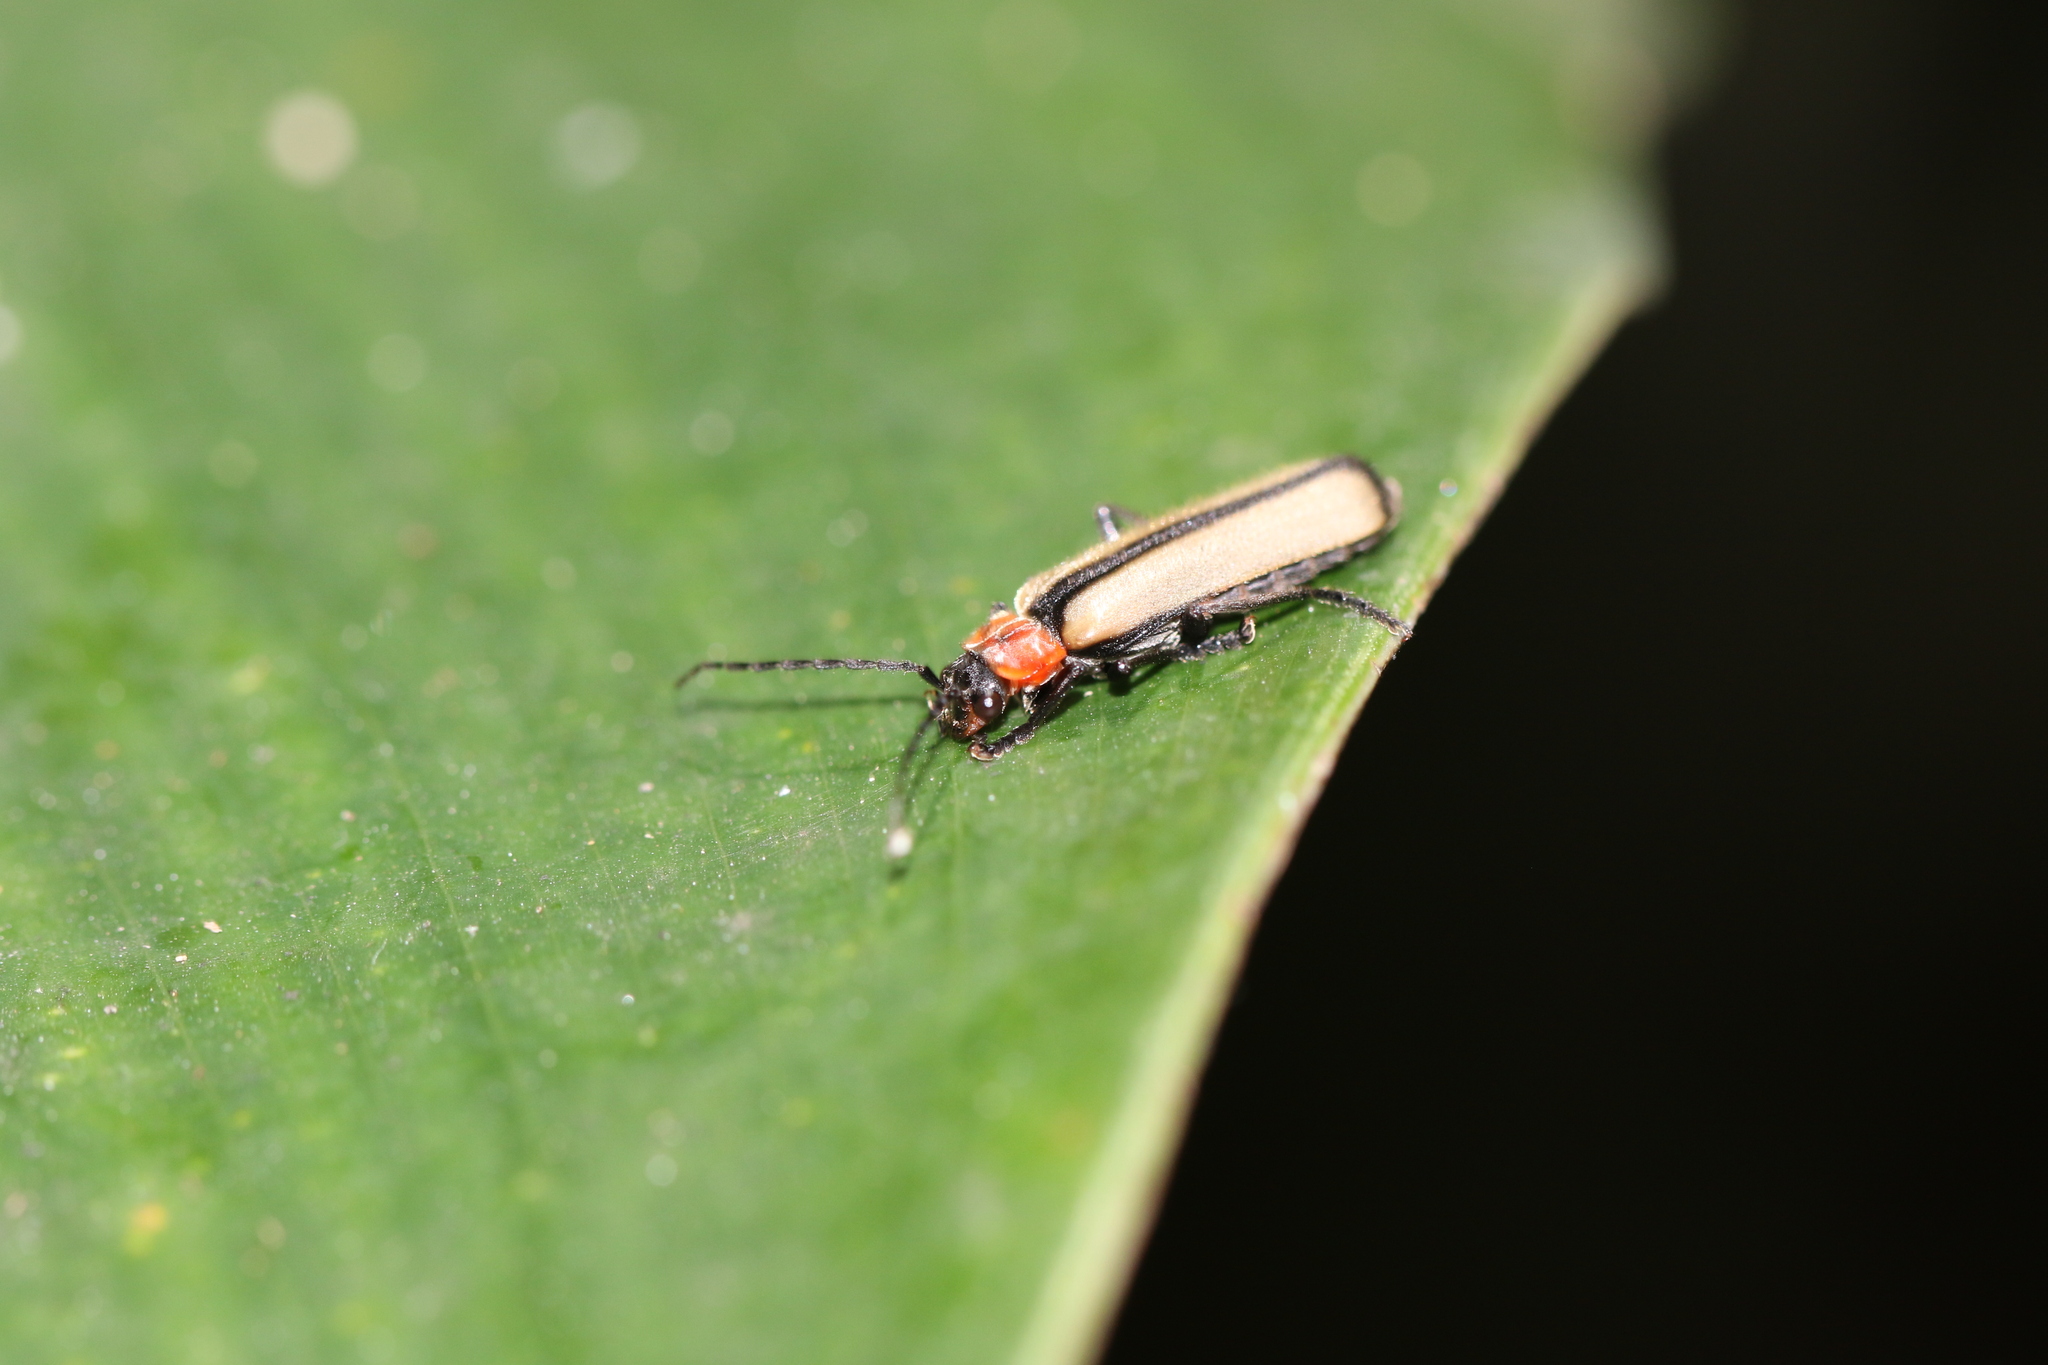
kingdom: Animalia
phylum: Arthropoda
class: Insecta
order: Coleoptera
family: Cantharidae
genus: Discodon
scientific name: Discodon
